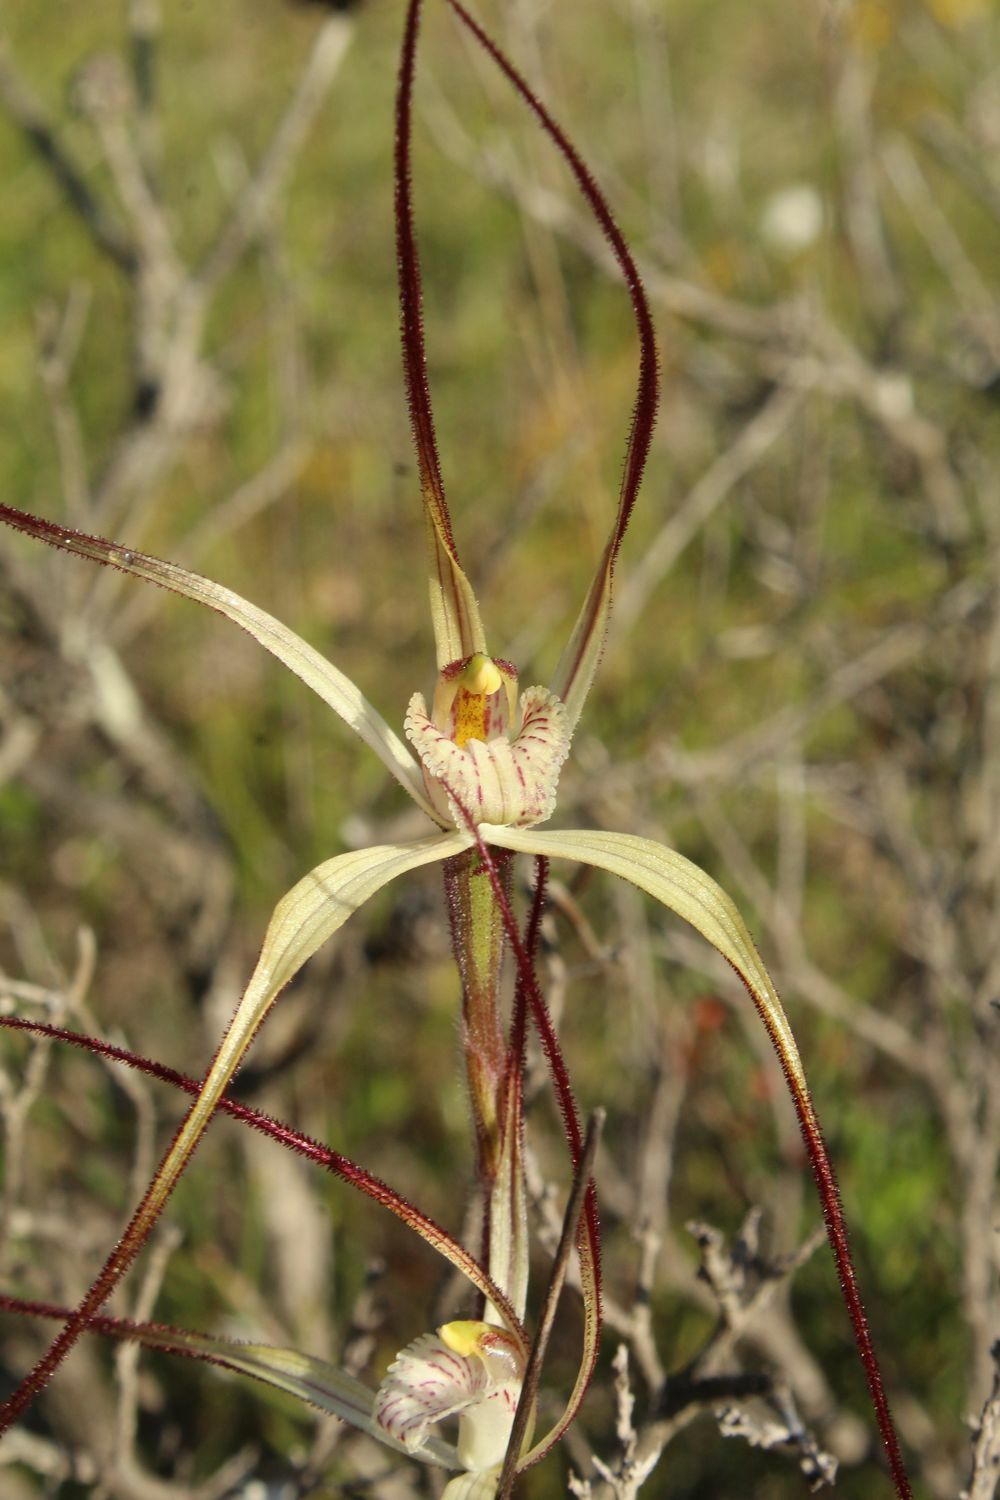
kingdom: Plantae
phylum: Tracheophyta
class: Liliopsida
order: Asparagales
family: Orchidaceae
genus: Caladenia
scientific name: Caladenia polychroma
